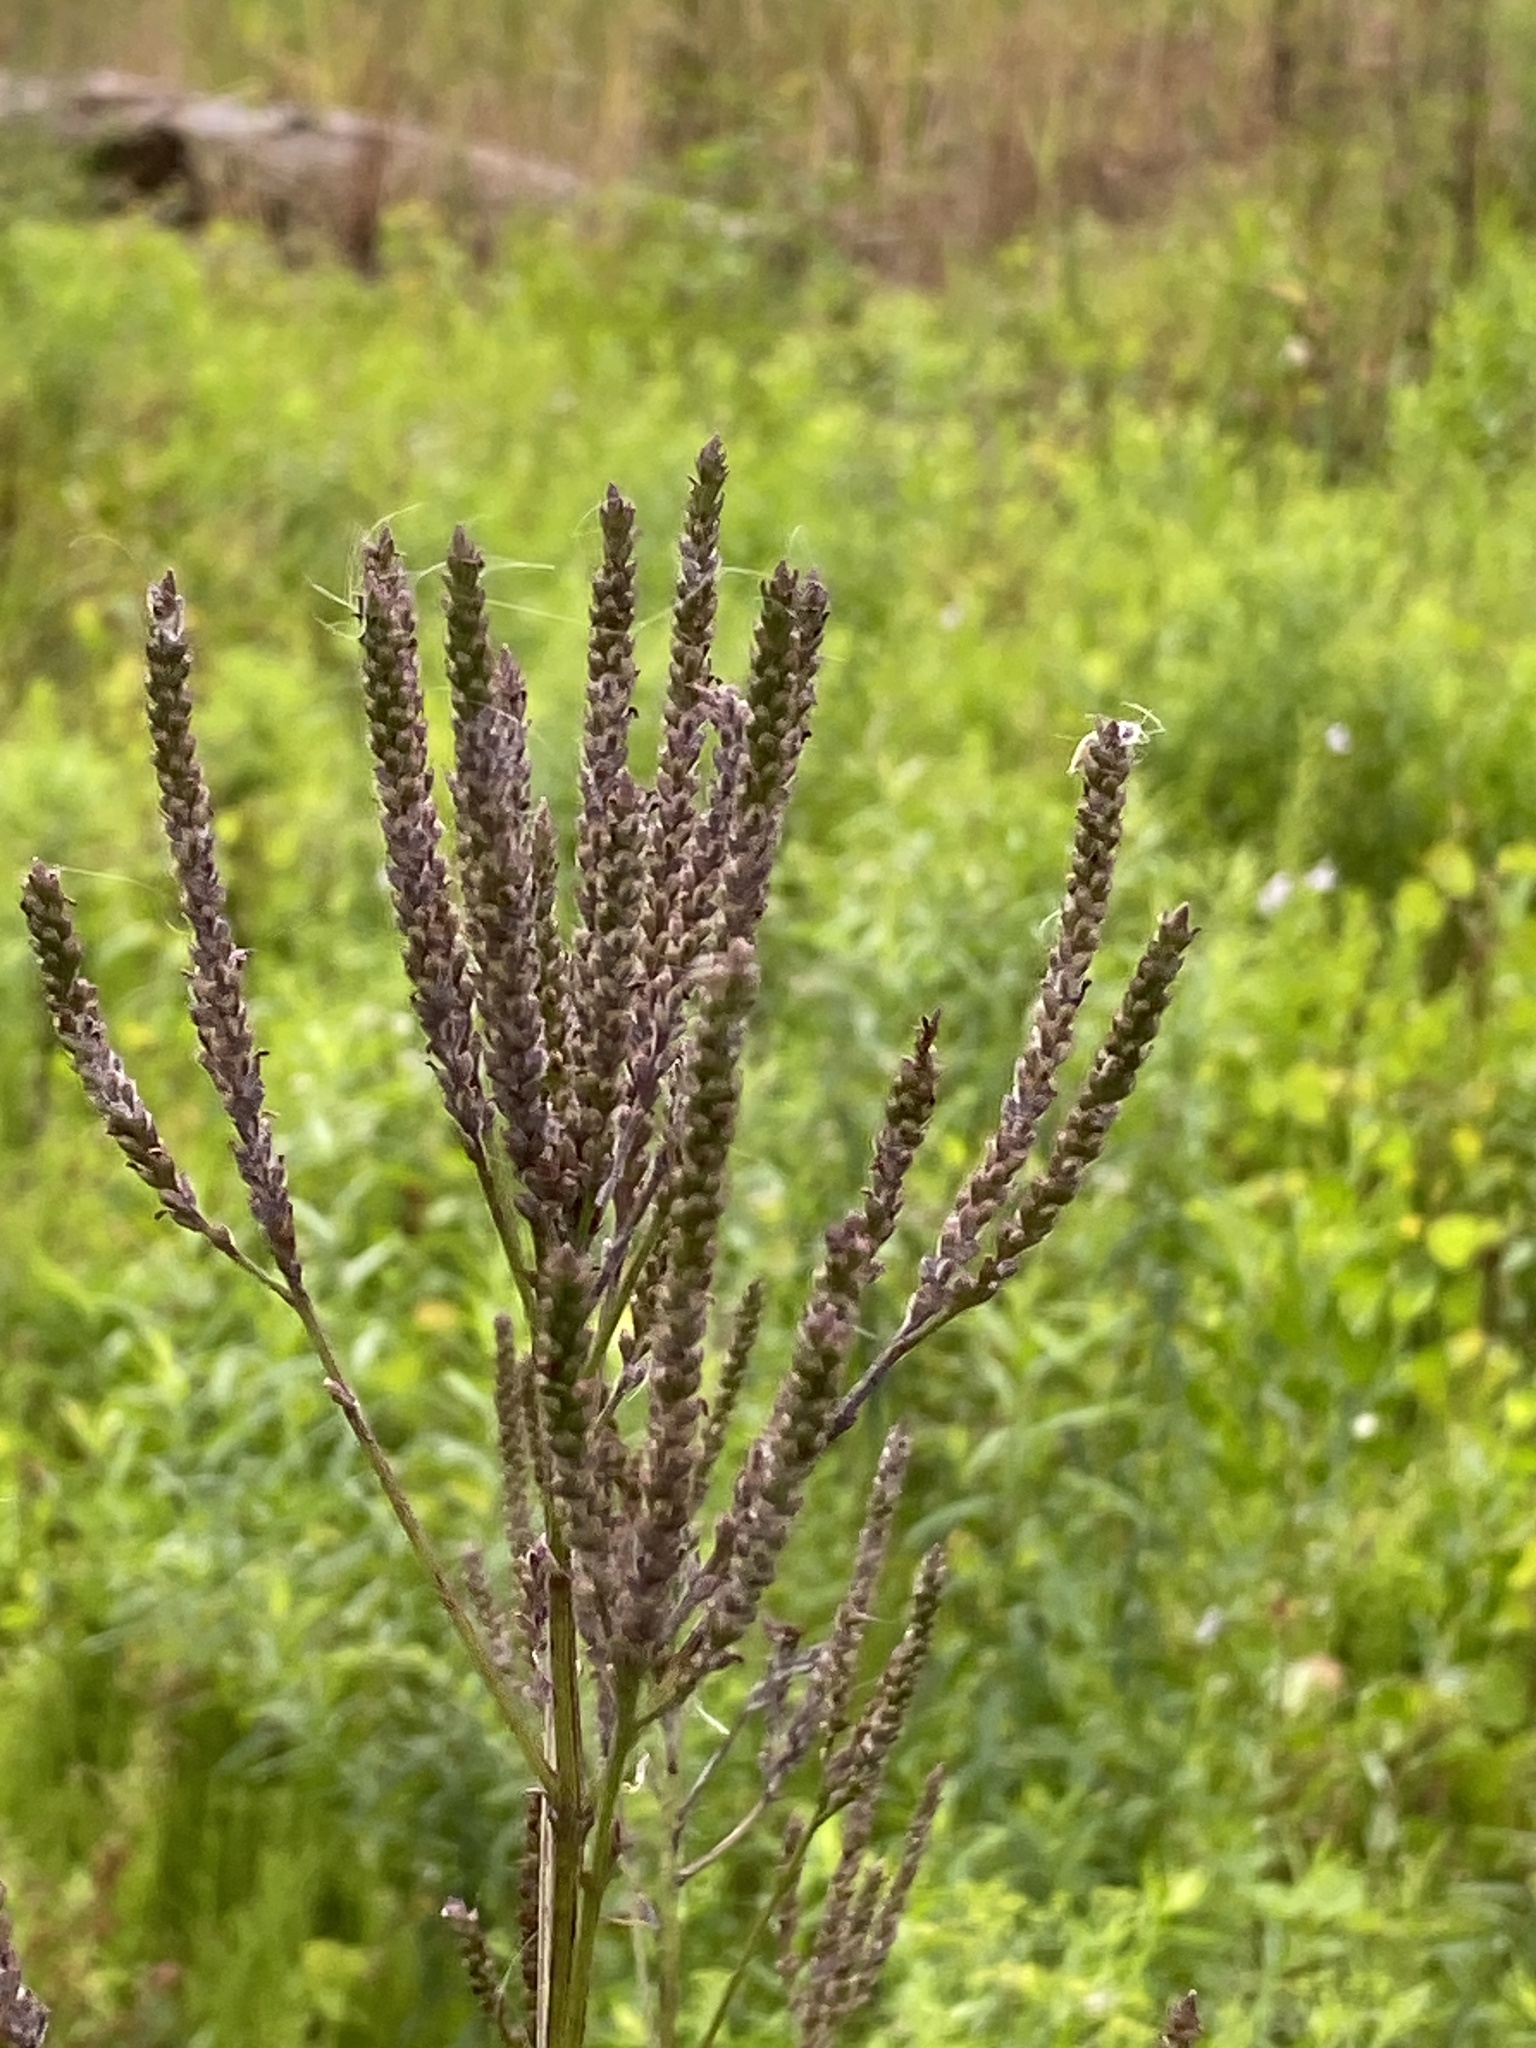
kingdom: Plantae
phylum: Tracheophyta
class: Magnoliopsida
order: Lamiales
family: Verbenaceae
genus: Verbena
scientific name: Verbena hastata
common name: American blue vervain
